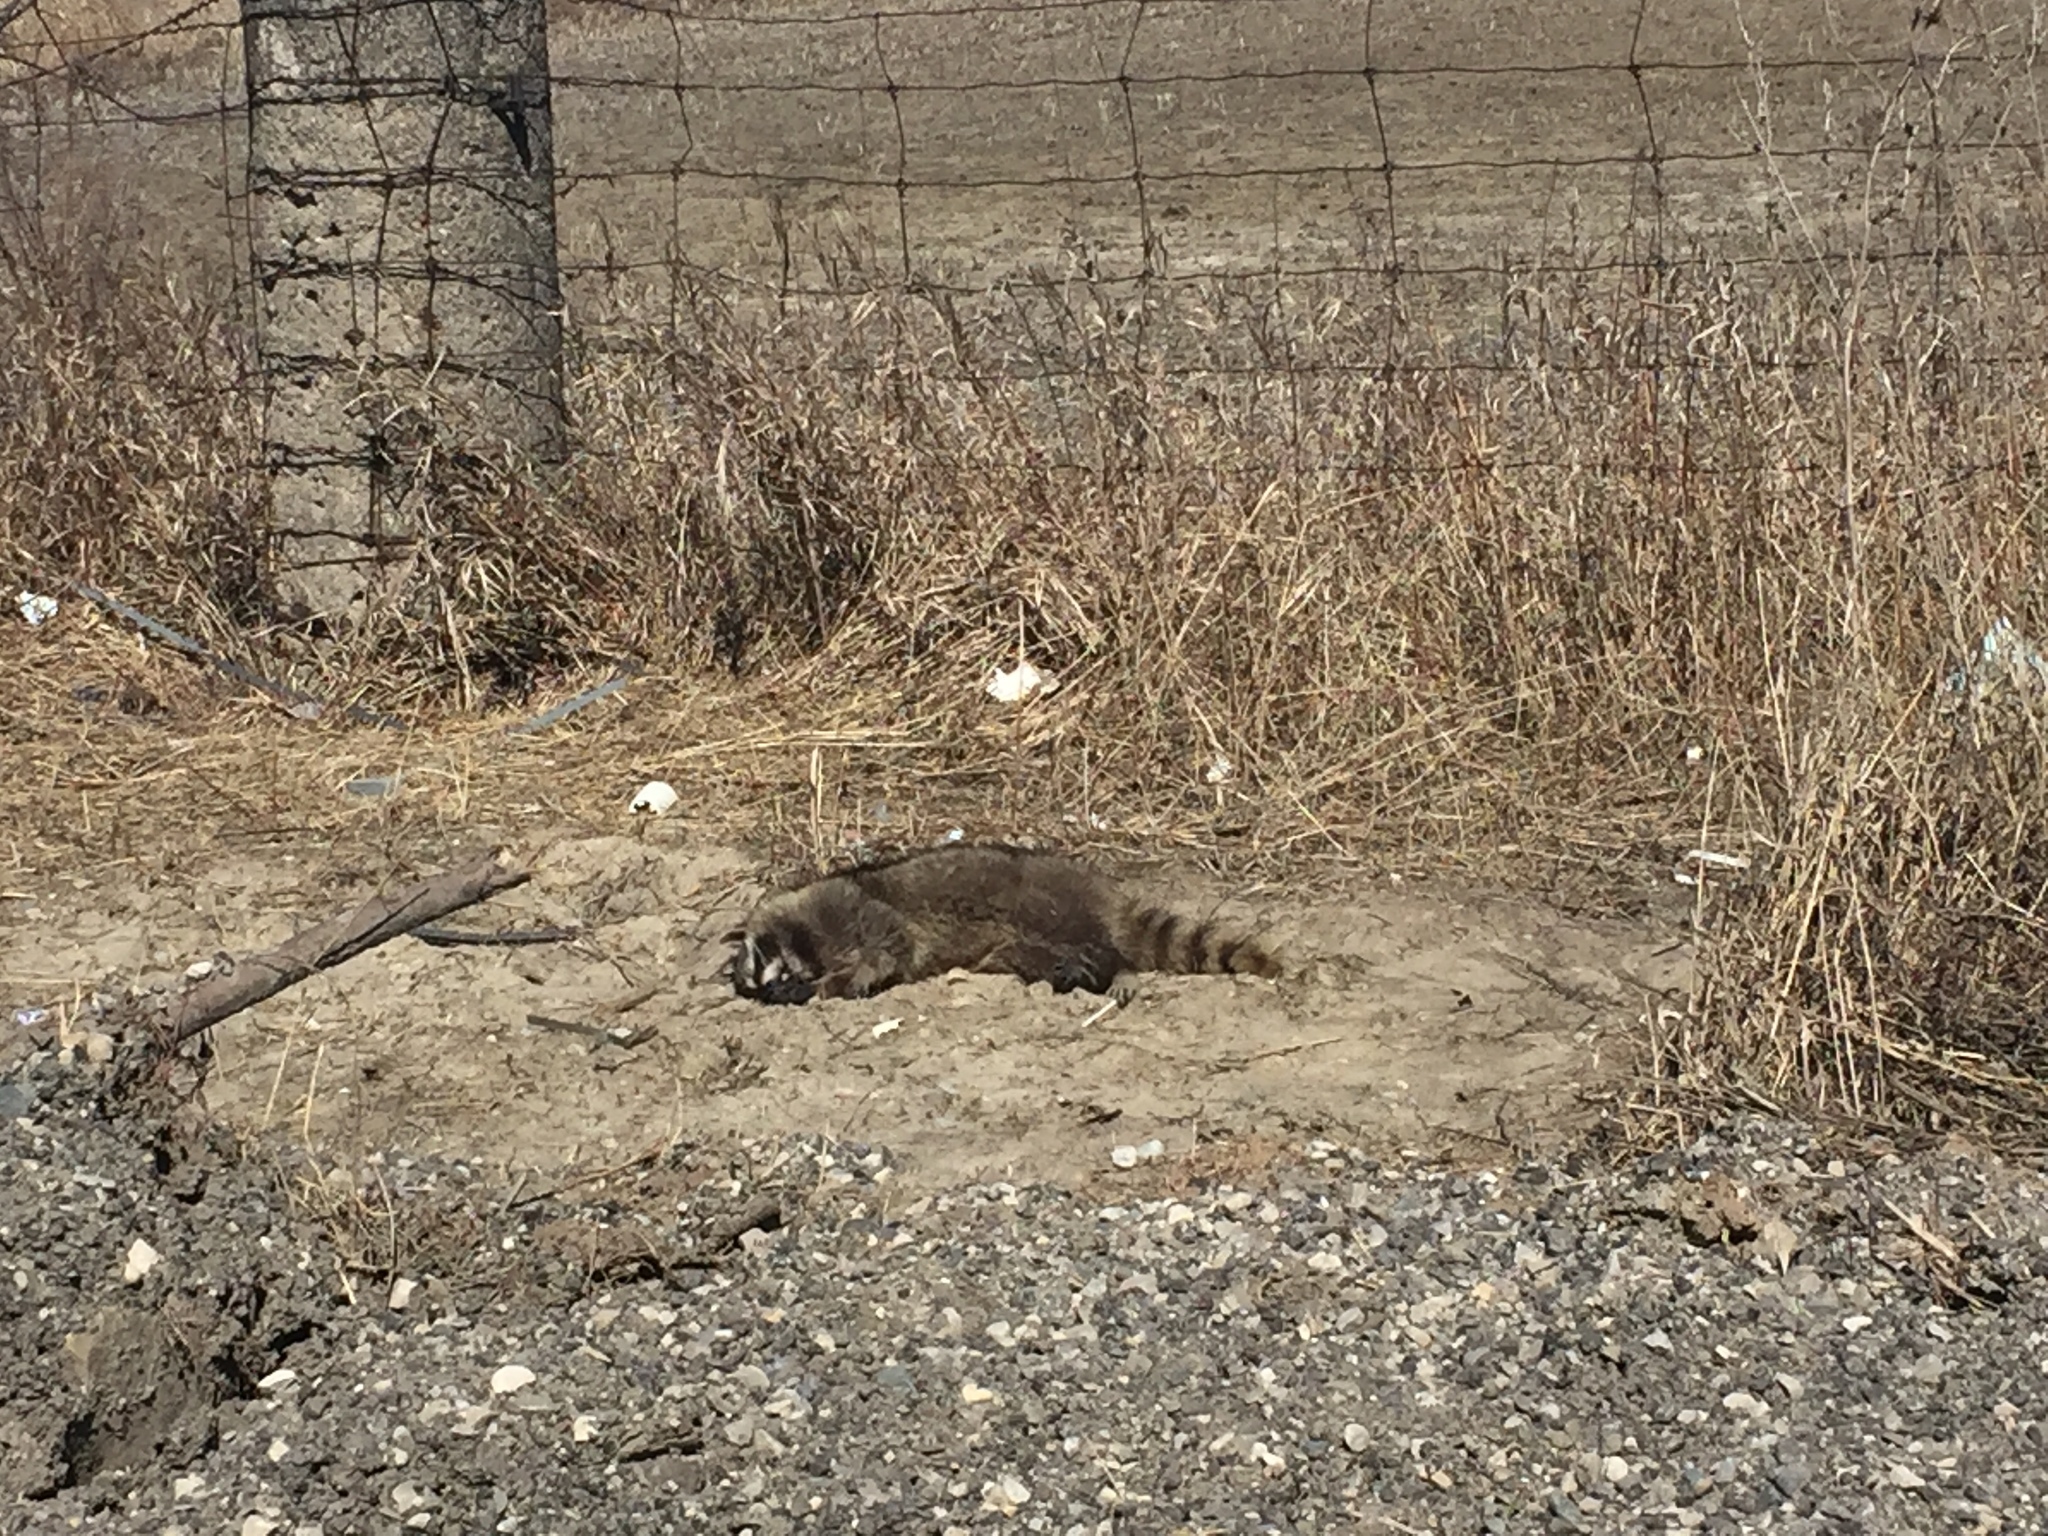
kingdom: Animalia
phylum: Chordata
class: Mammalia
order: Carnivora
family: Procyonidae
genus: Procyon
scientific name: Procyon lotor
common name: Raccoon
